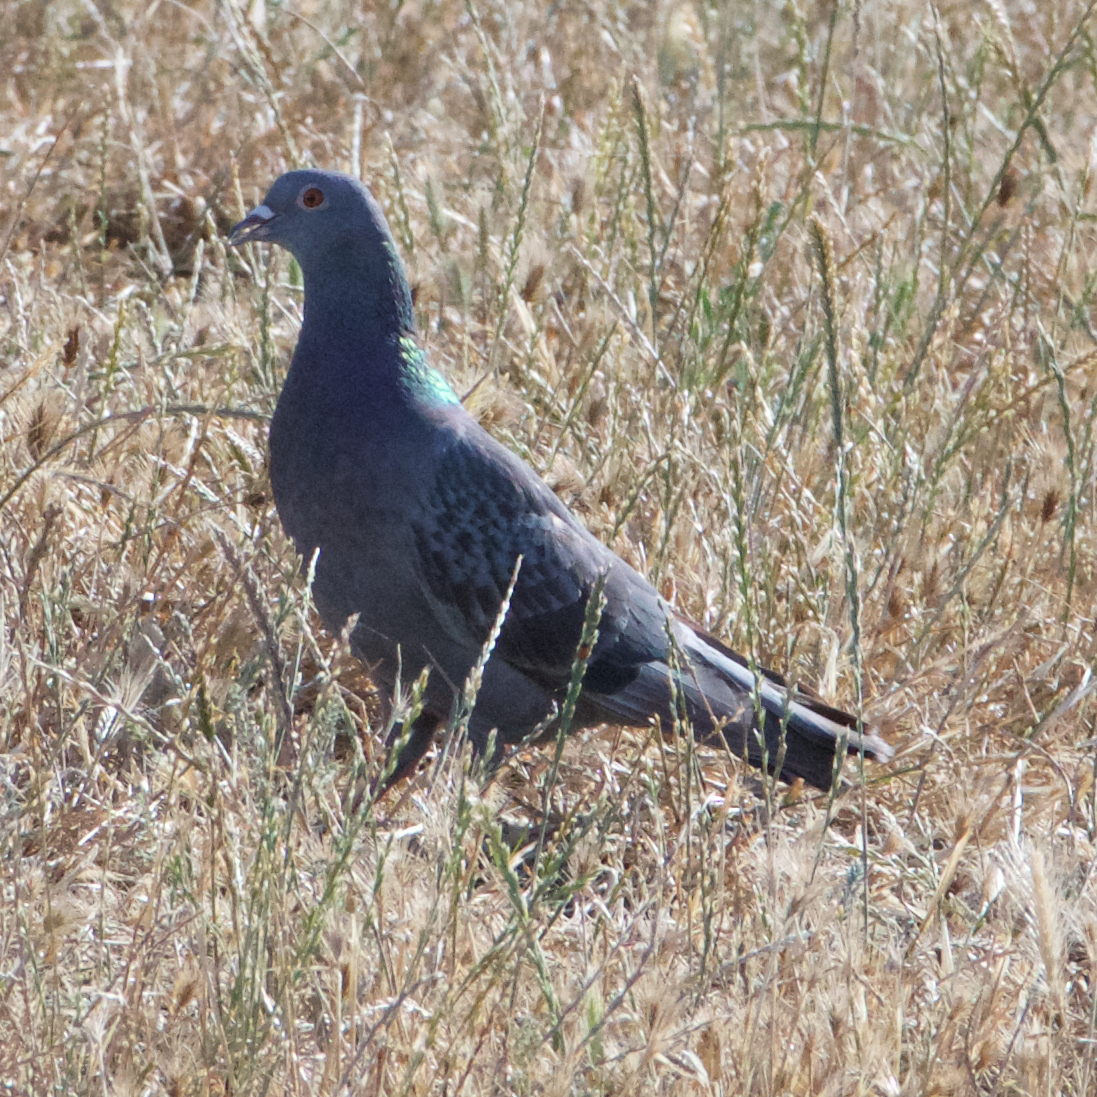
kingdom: Animalia
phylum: Chordata
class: Aves
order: Columbiformes
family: Columbidae
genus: Columba
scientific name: Columba livia
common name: Rock pigeon
